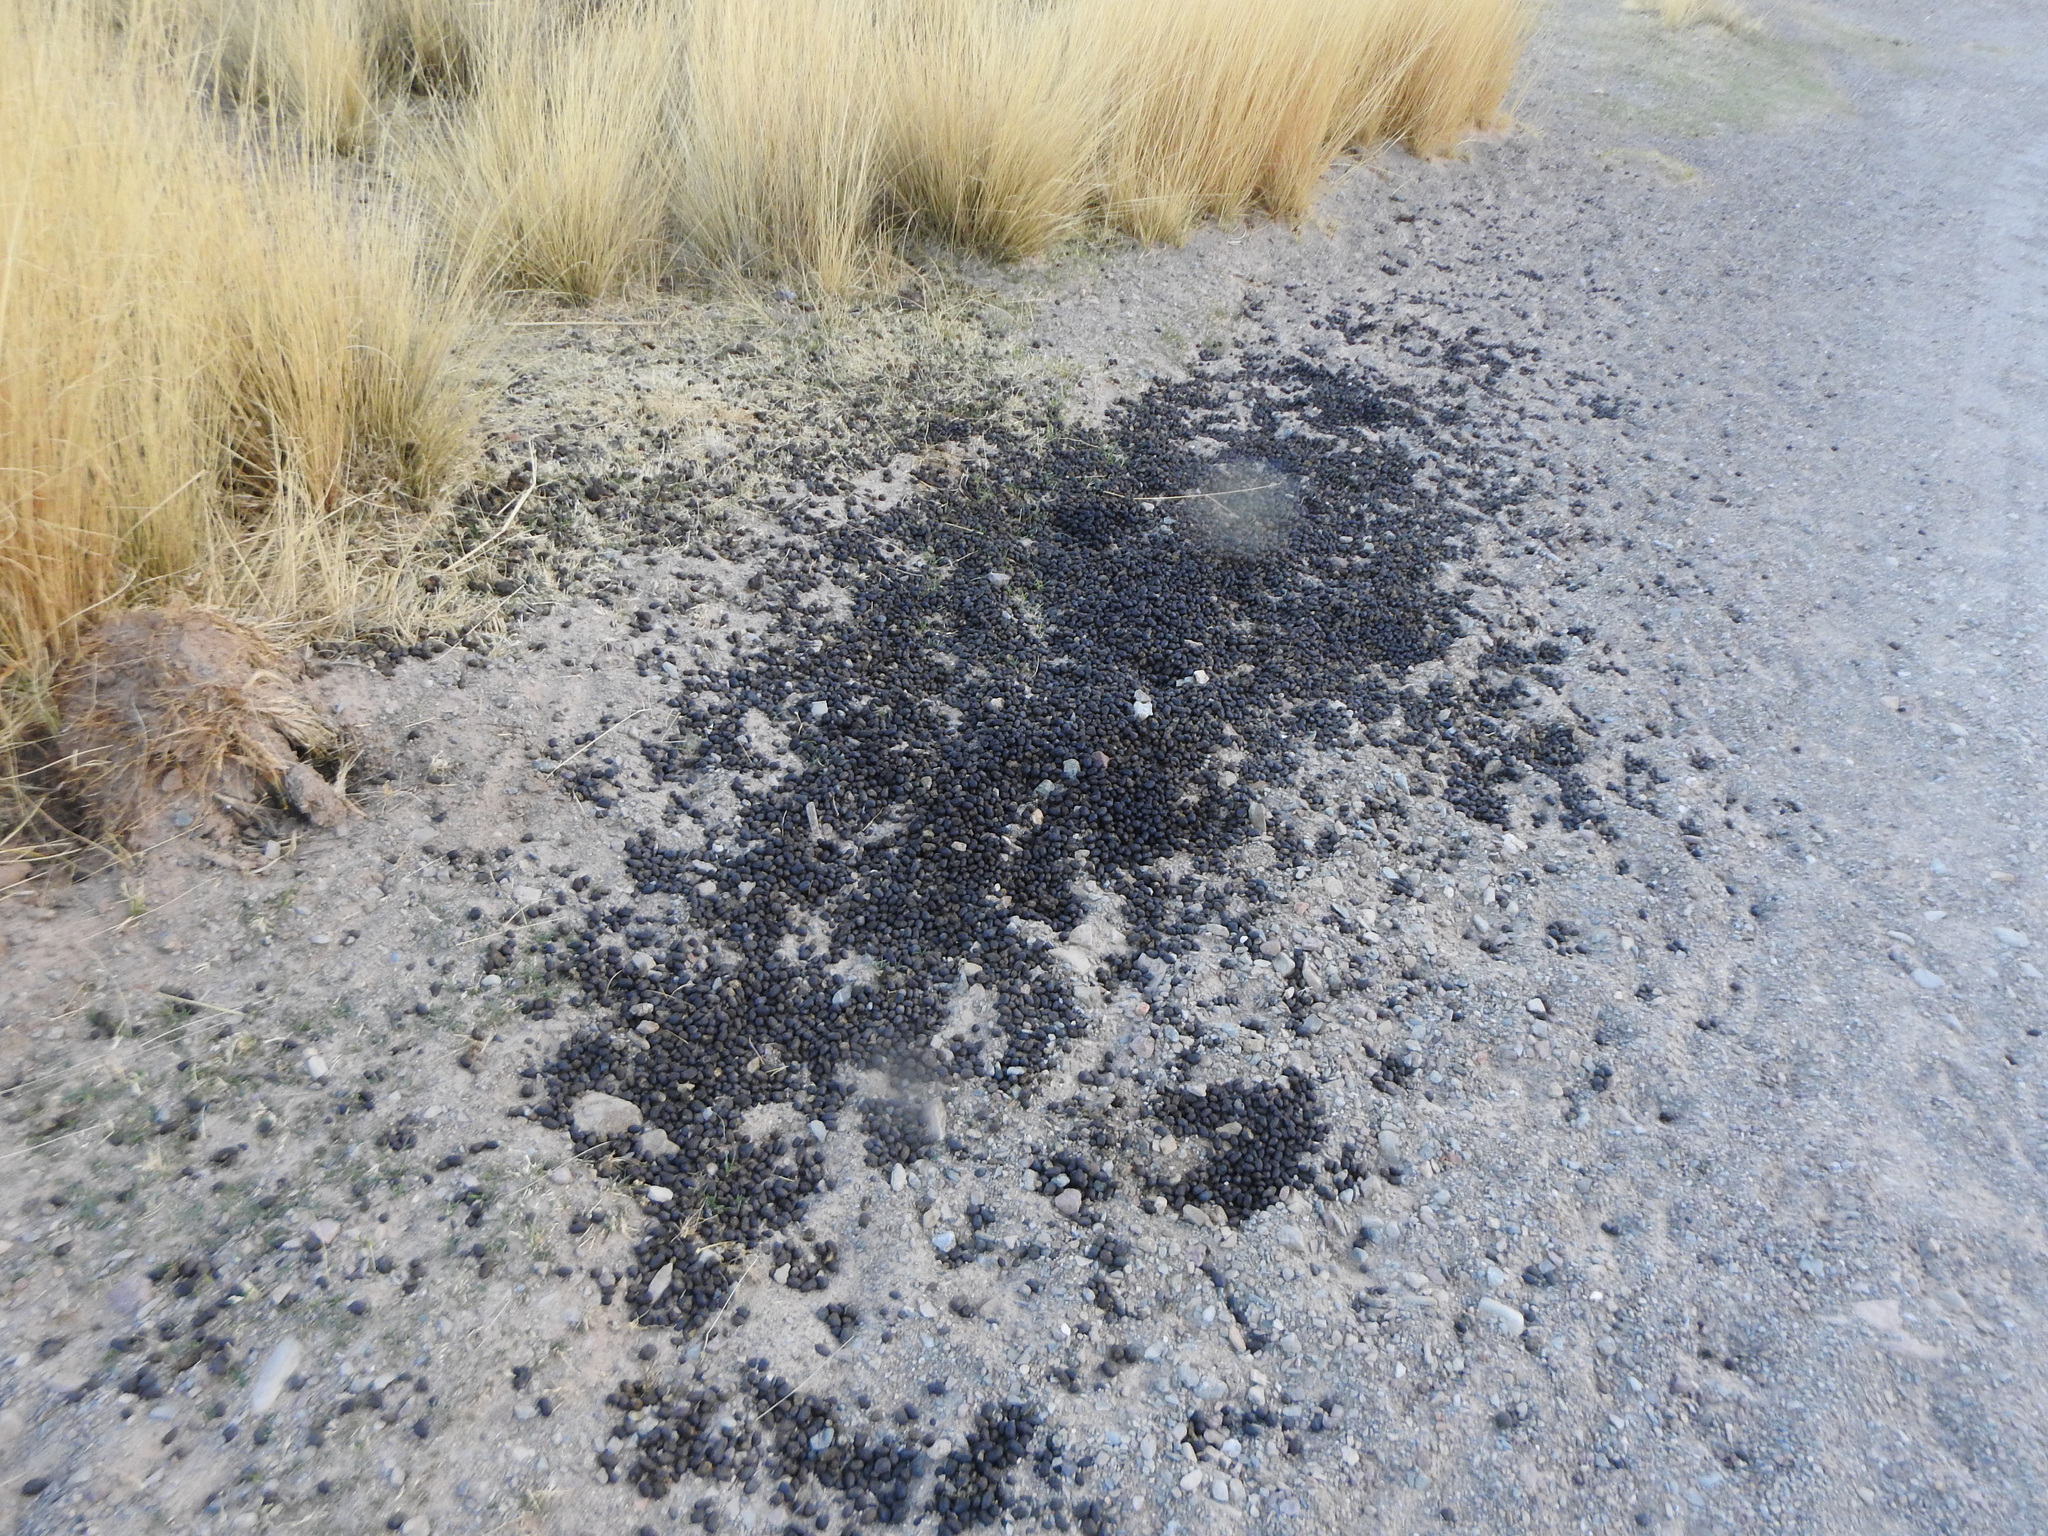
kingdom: Animalia
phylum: Chordata
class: Mammalia
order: Artiodactyla
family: Camelidae
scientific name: Camelidae
